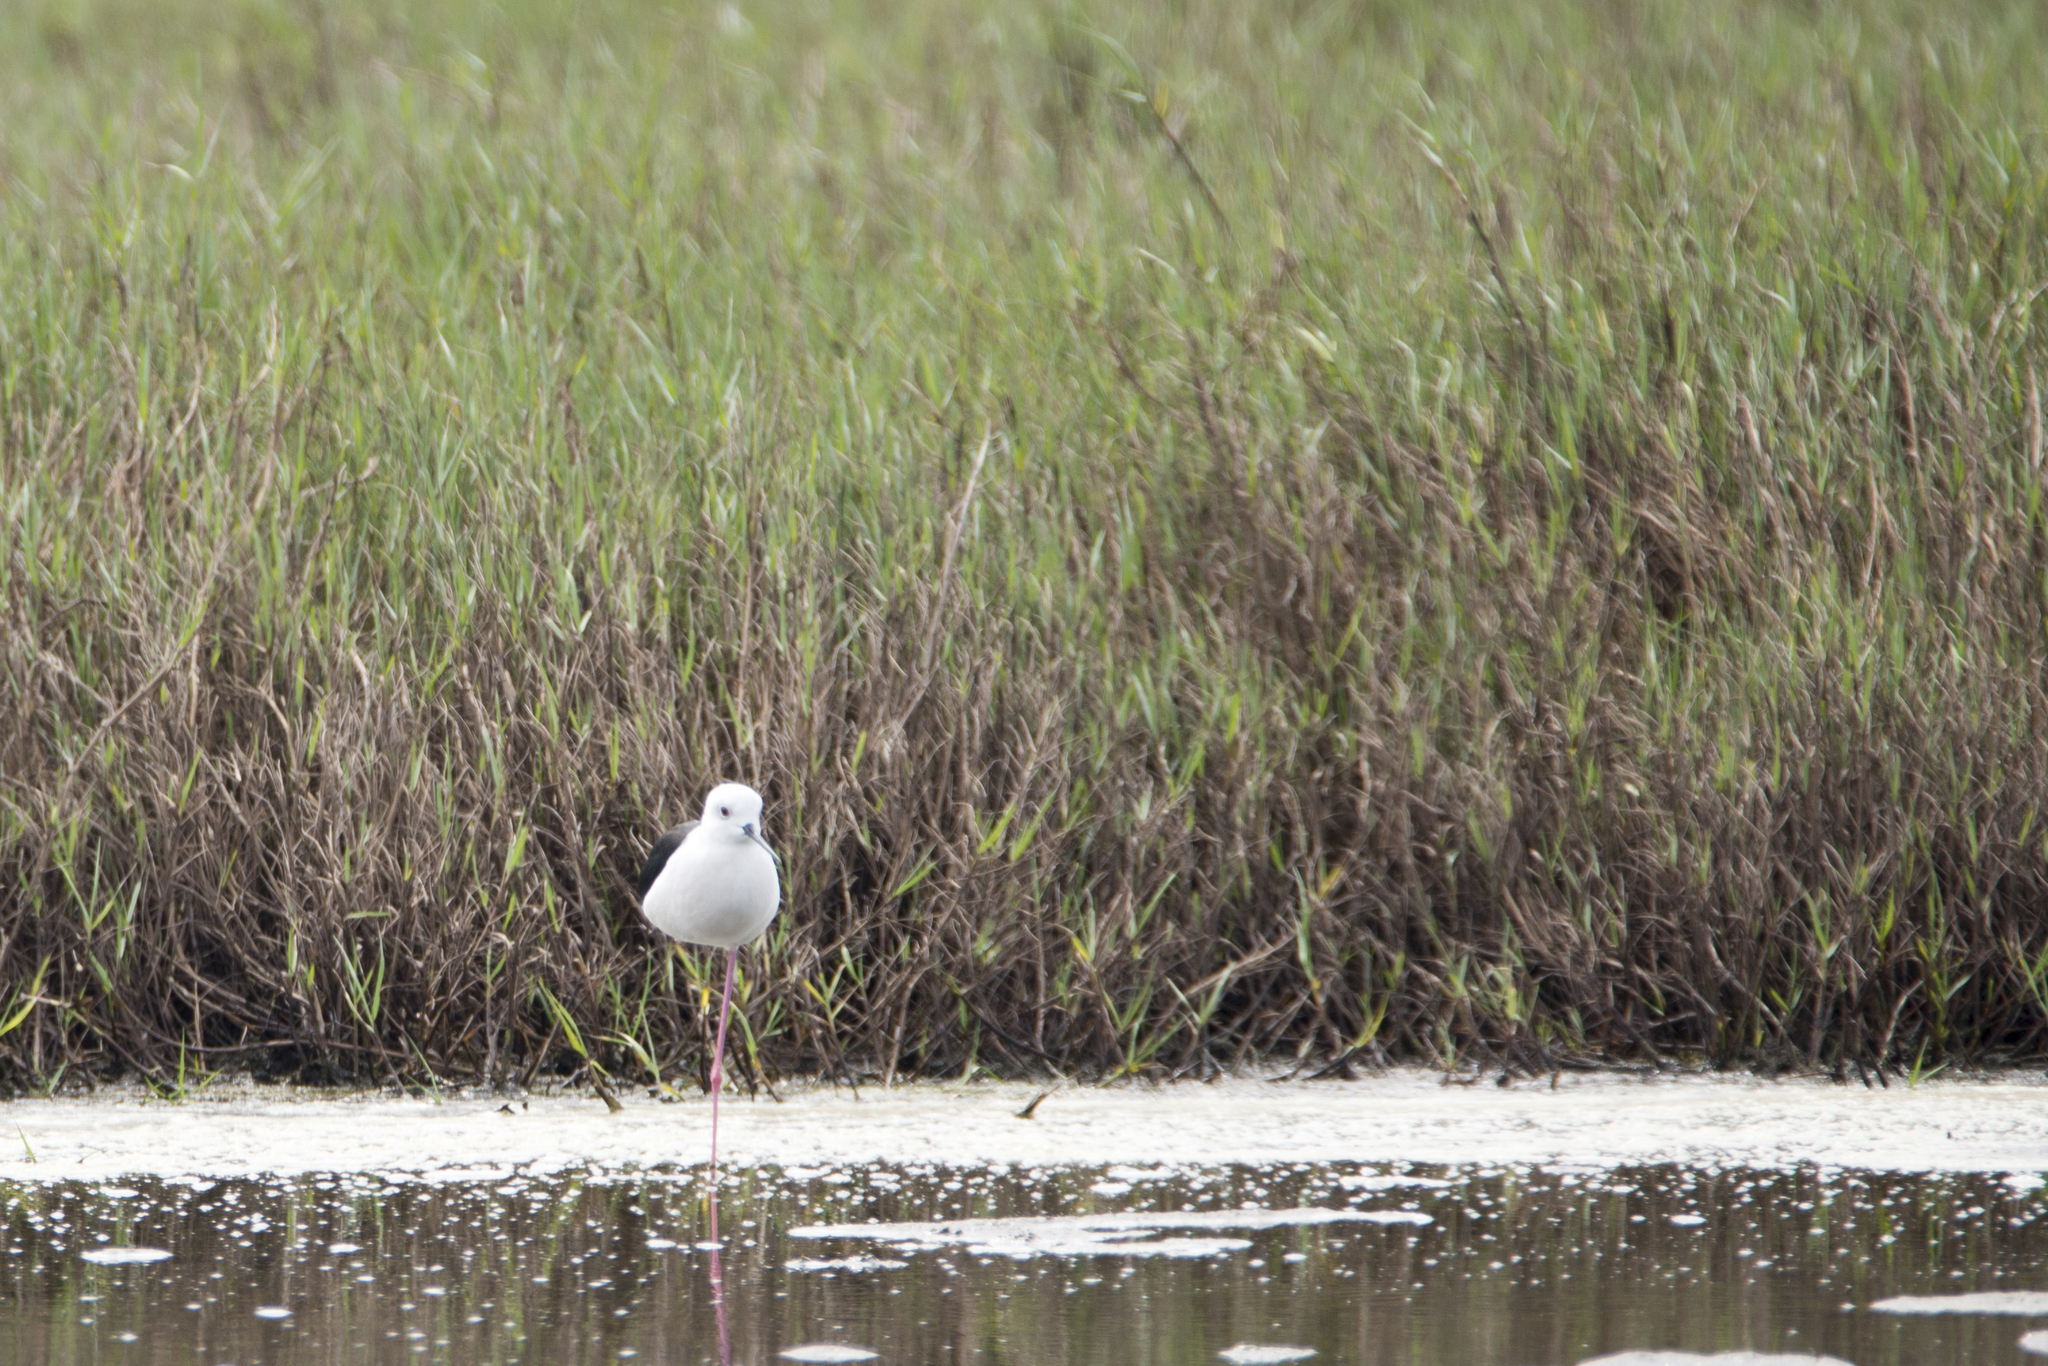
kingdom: Animalia
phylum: Chordata
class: Aves
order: Charadriiformes
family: Recurvirostridae
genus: Himantopus
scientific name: Himantopus himantopus
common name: Black-winged stilt
